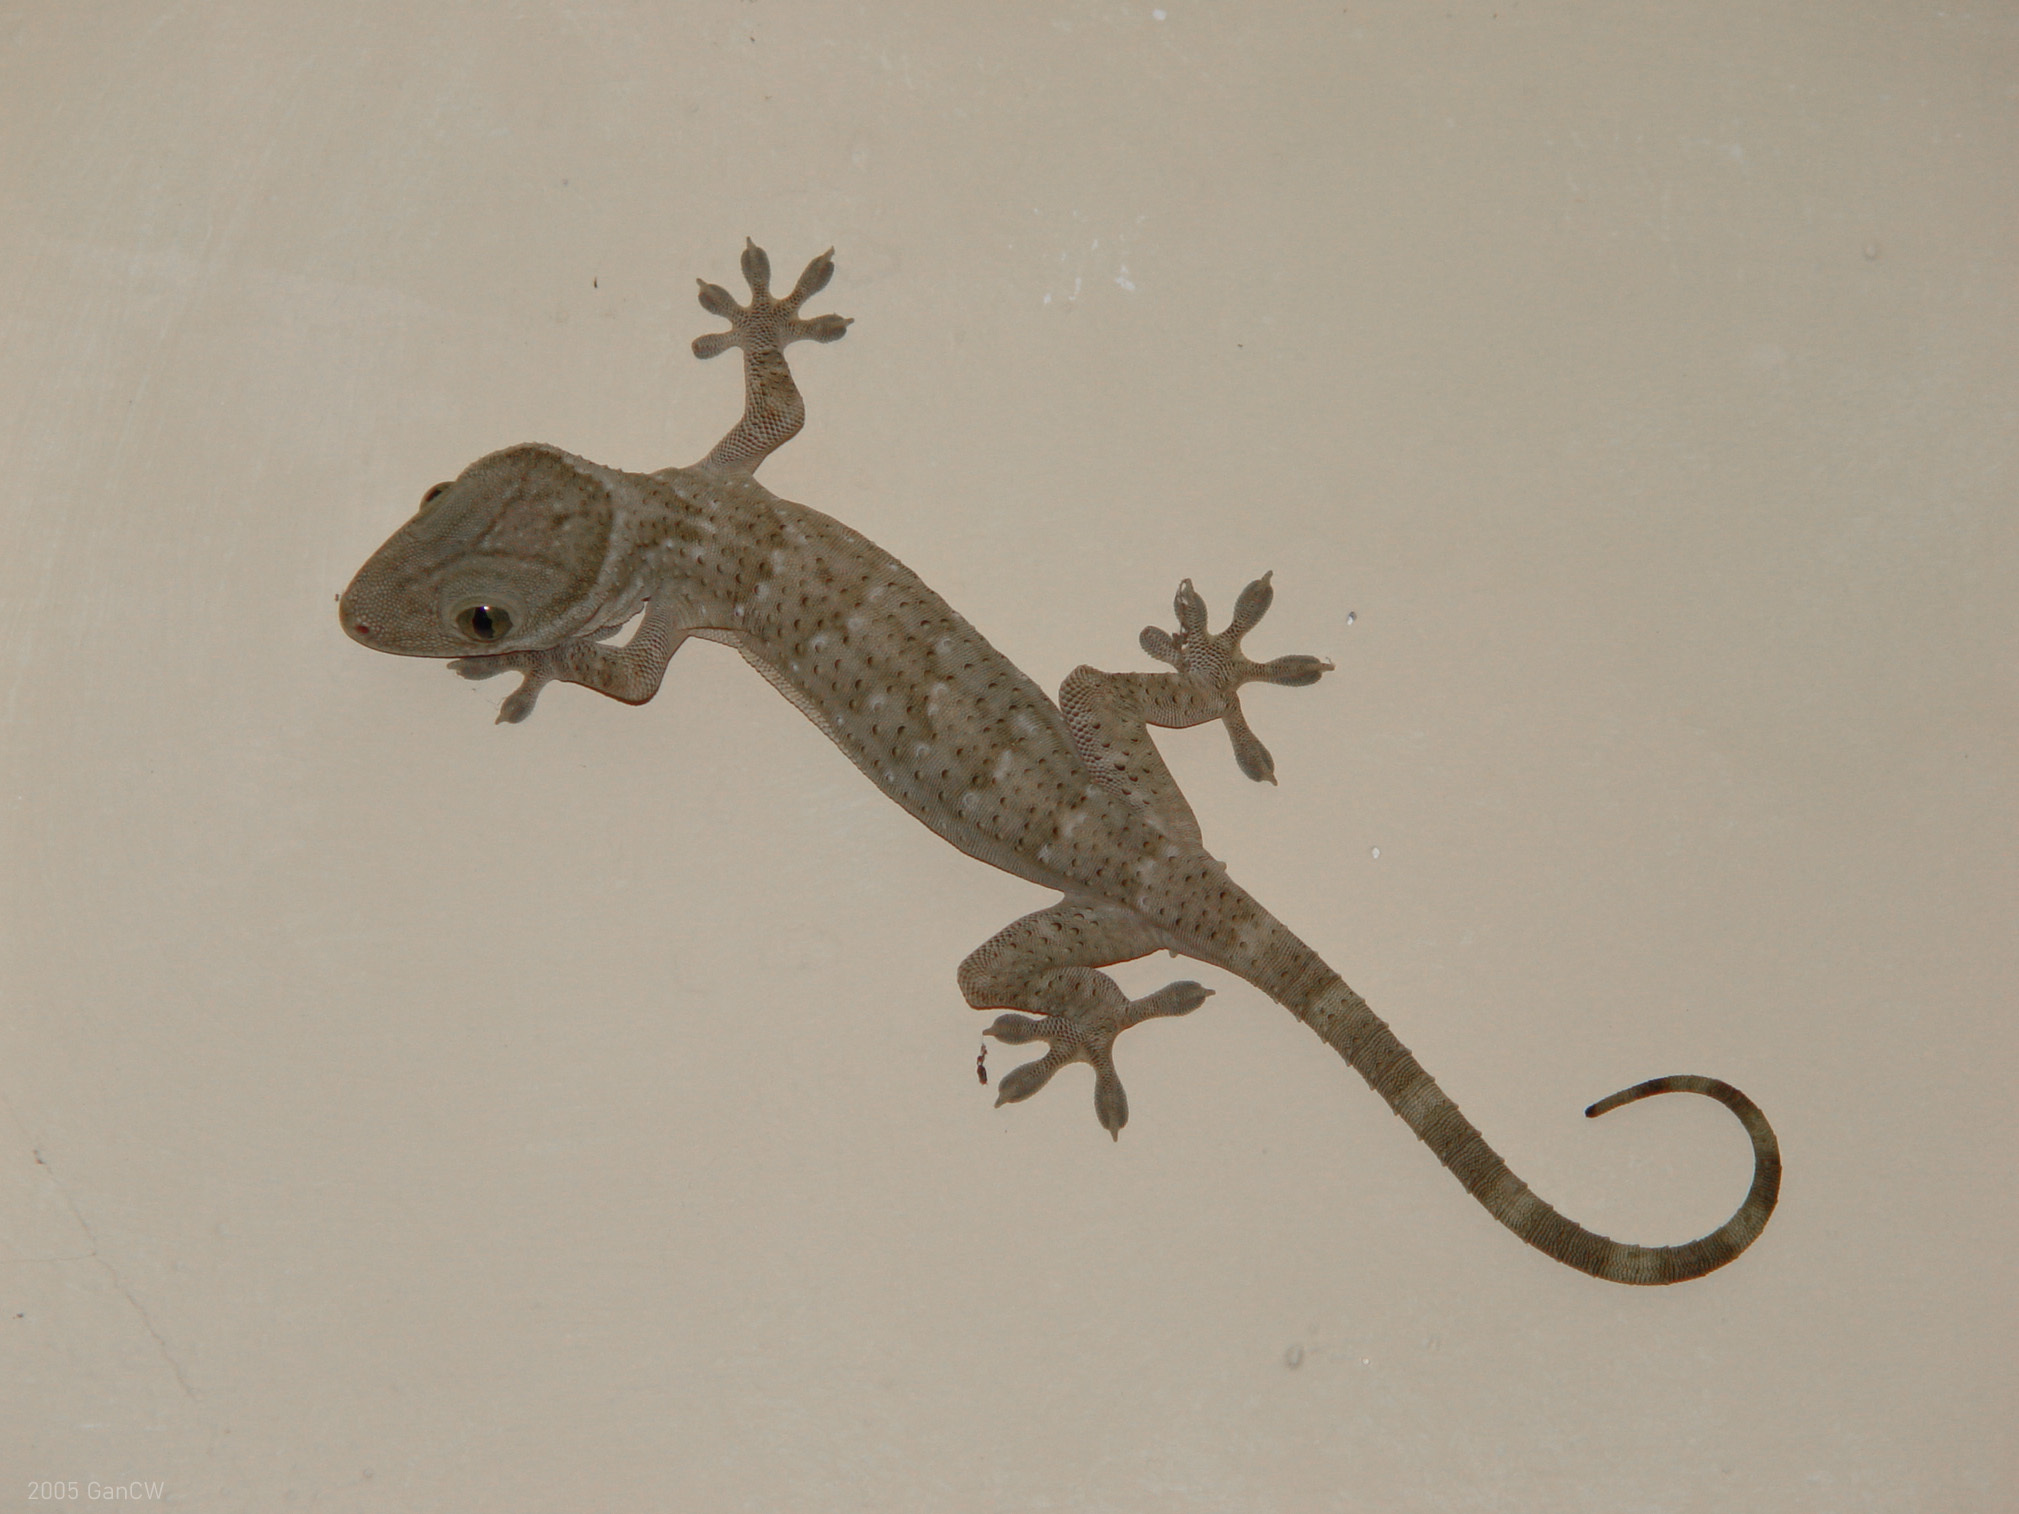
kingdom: Animalia
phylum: Chordata
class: Squamata
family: Gekkonidae
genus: Gekko
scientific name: Gekko hulk
